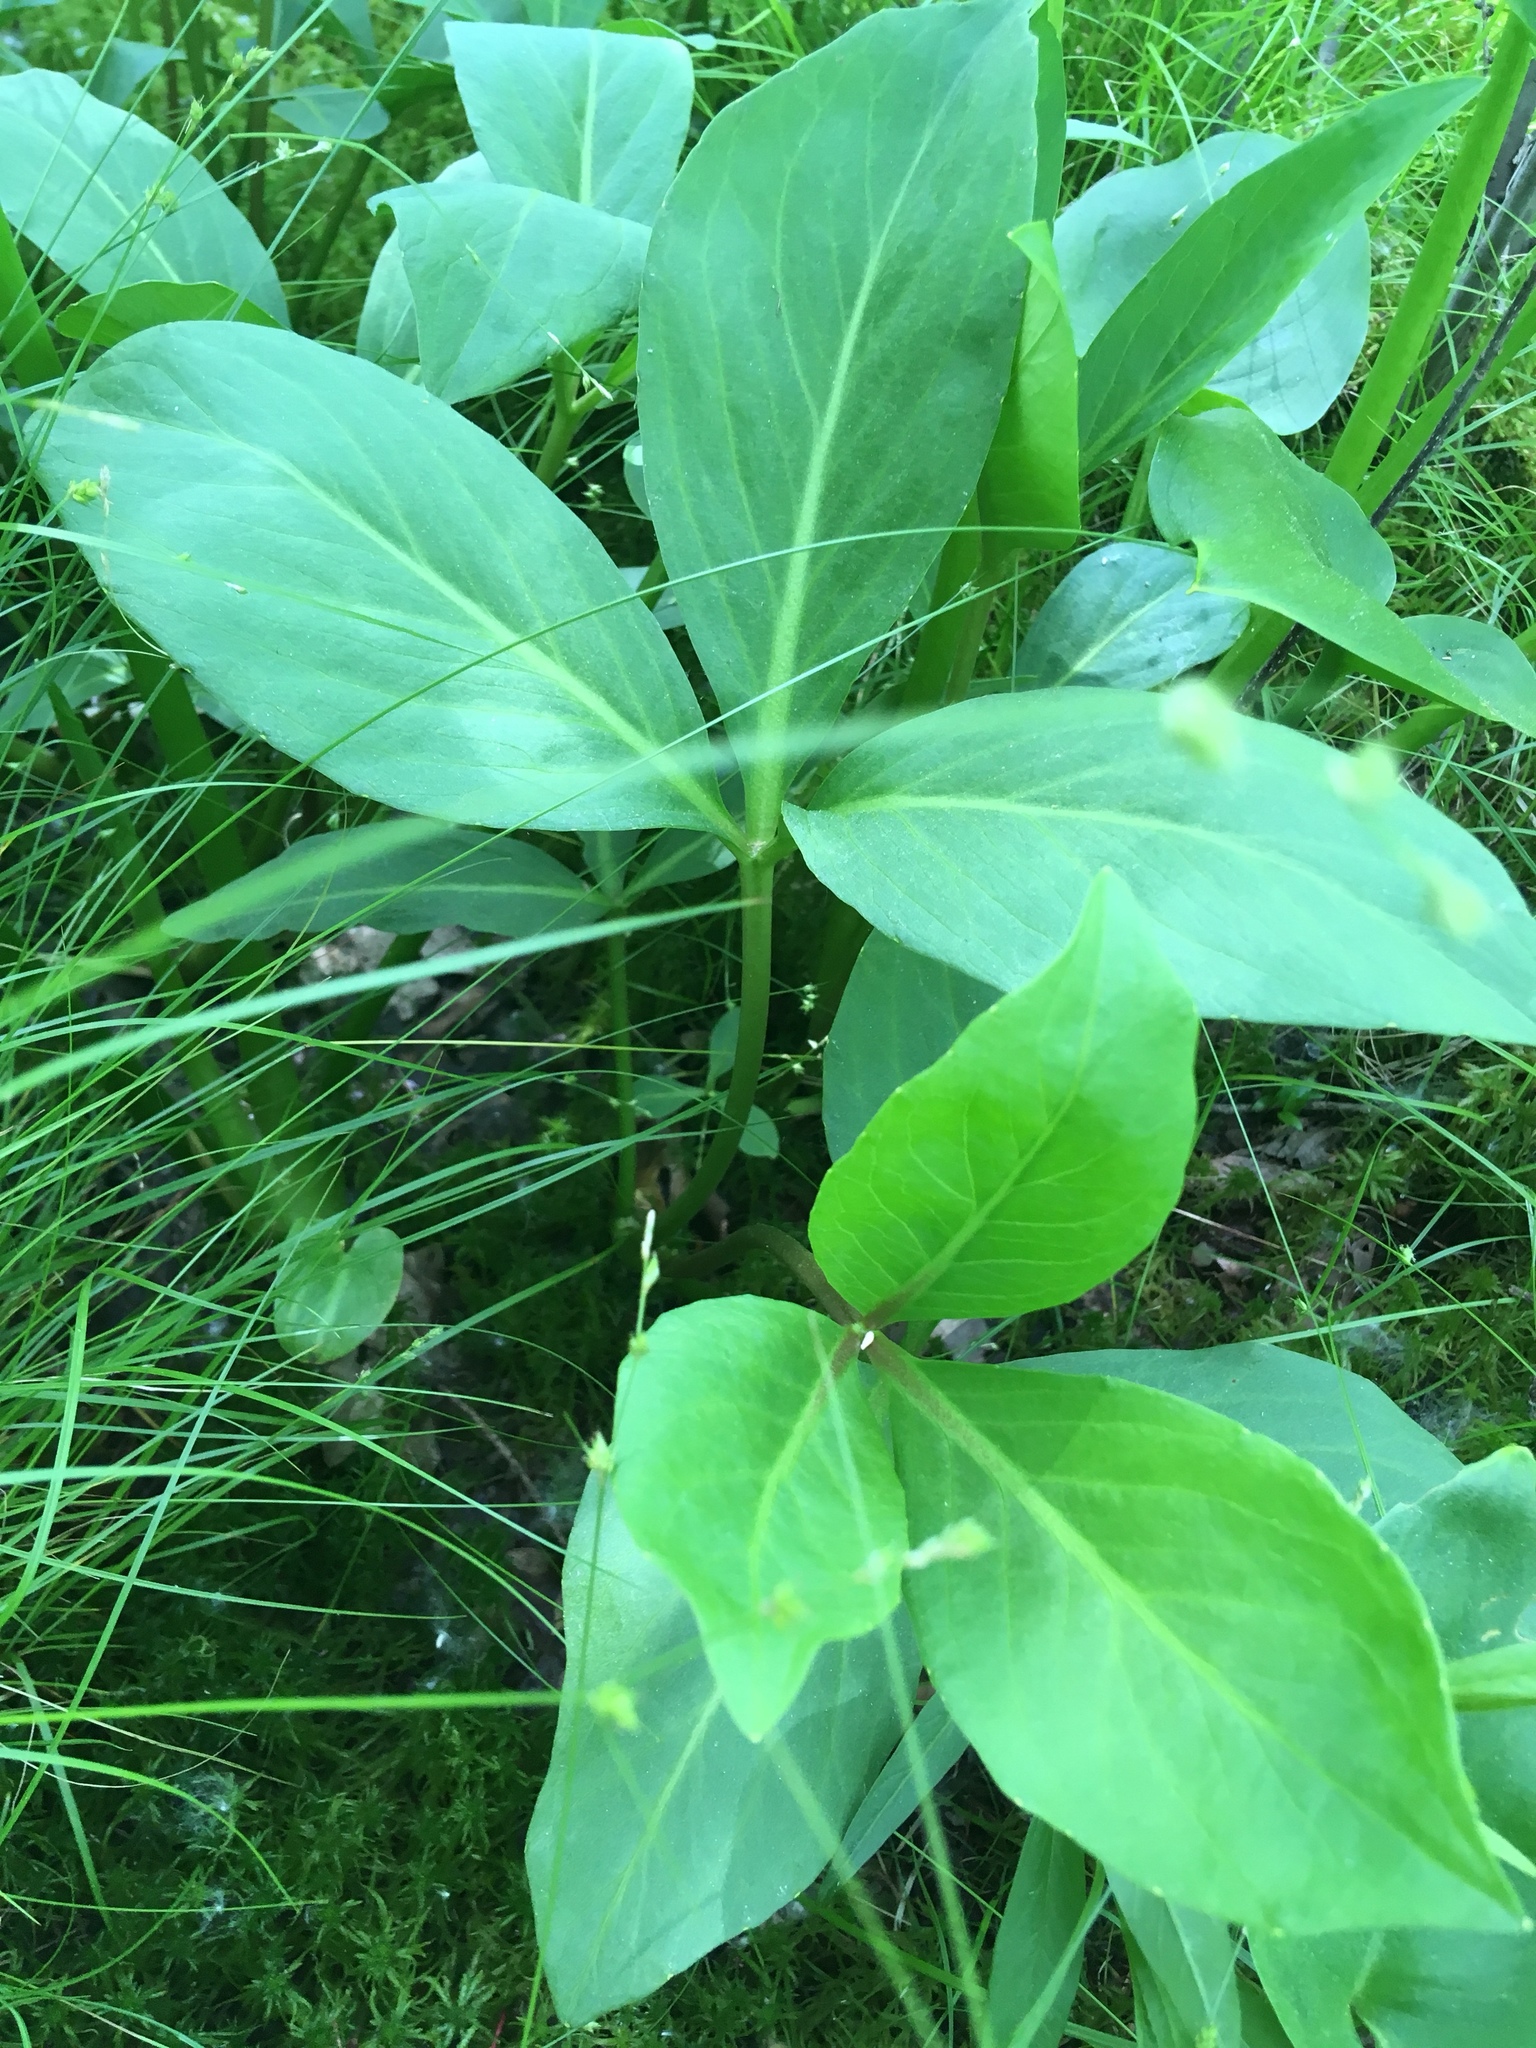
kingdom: Plantae
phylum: Tracheophyta
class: Magnoliopsida
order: Asterales
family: Menyanthaceae
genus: Menyanthes
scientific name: Menyanthes trifoliata
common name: Bogbean
